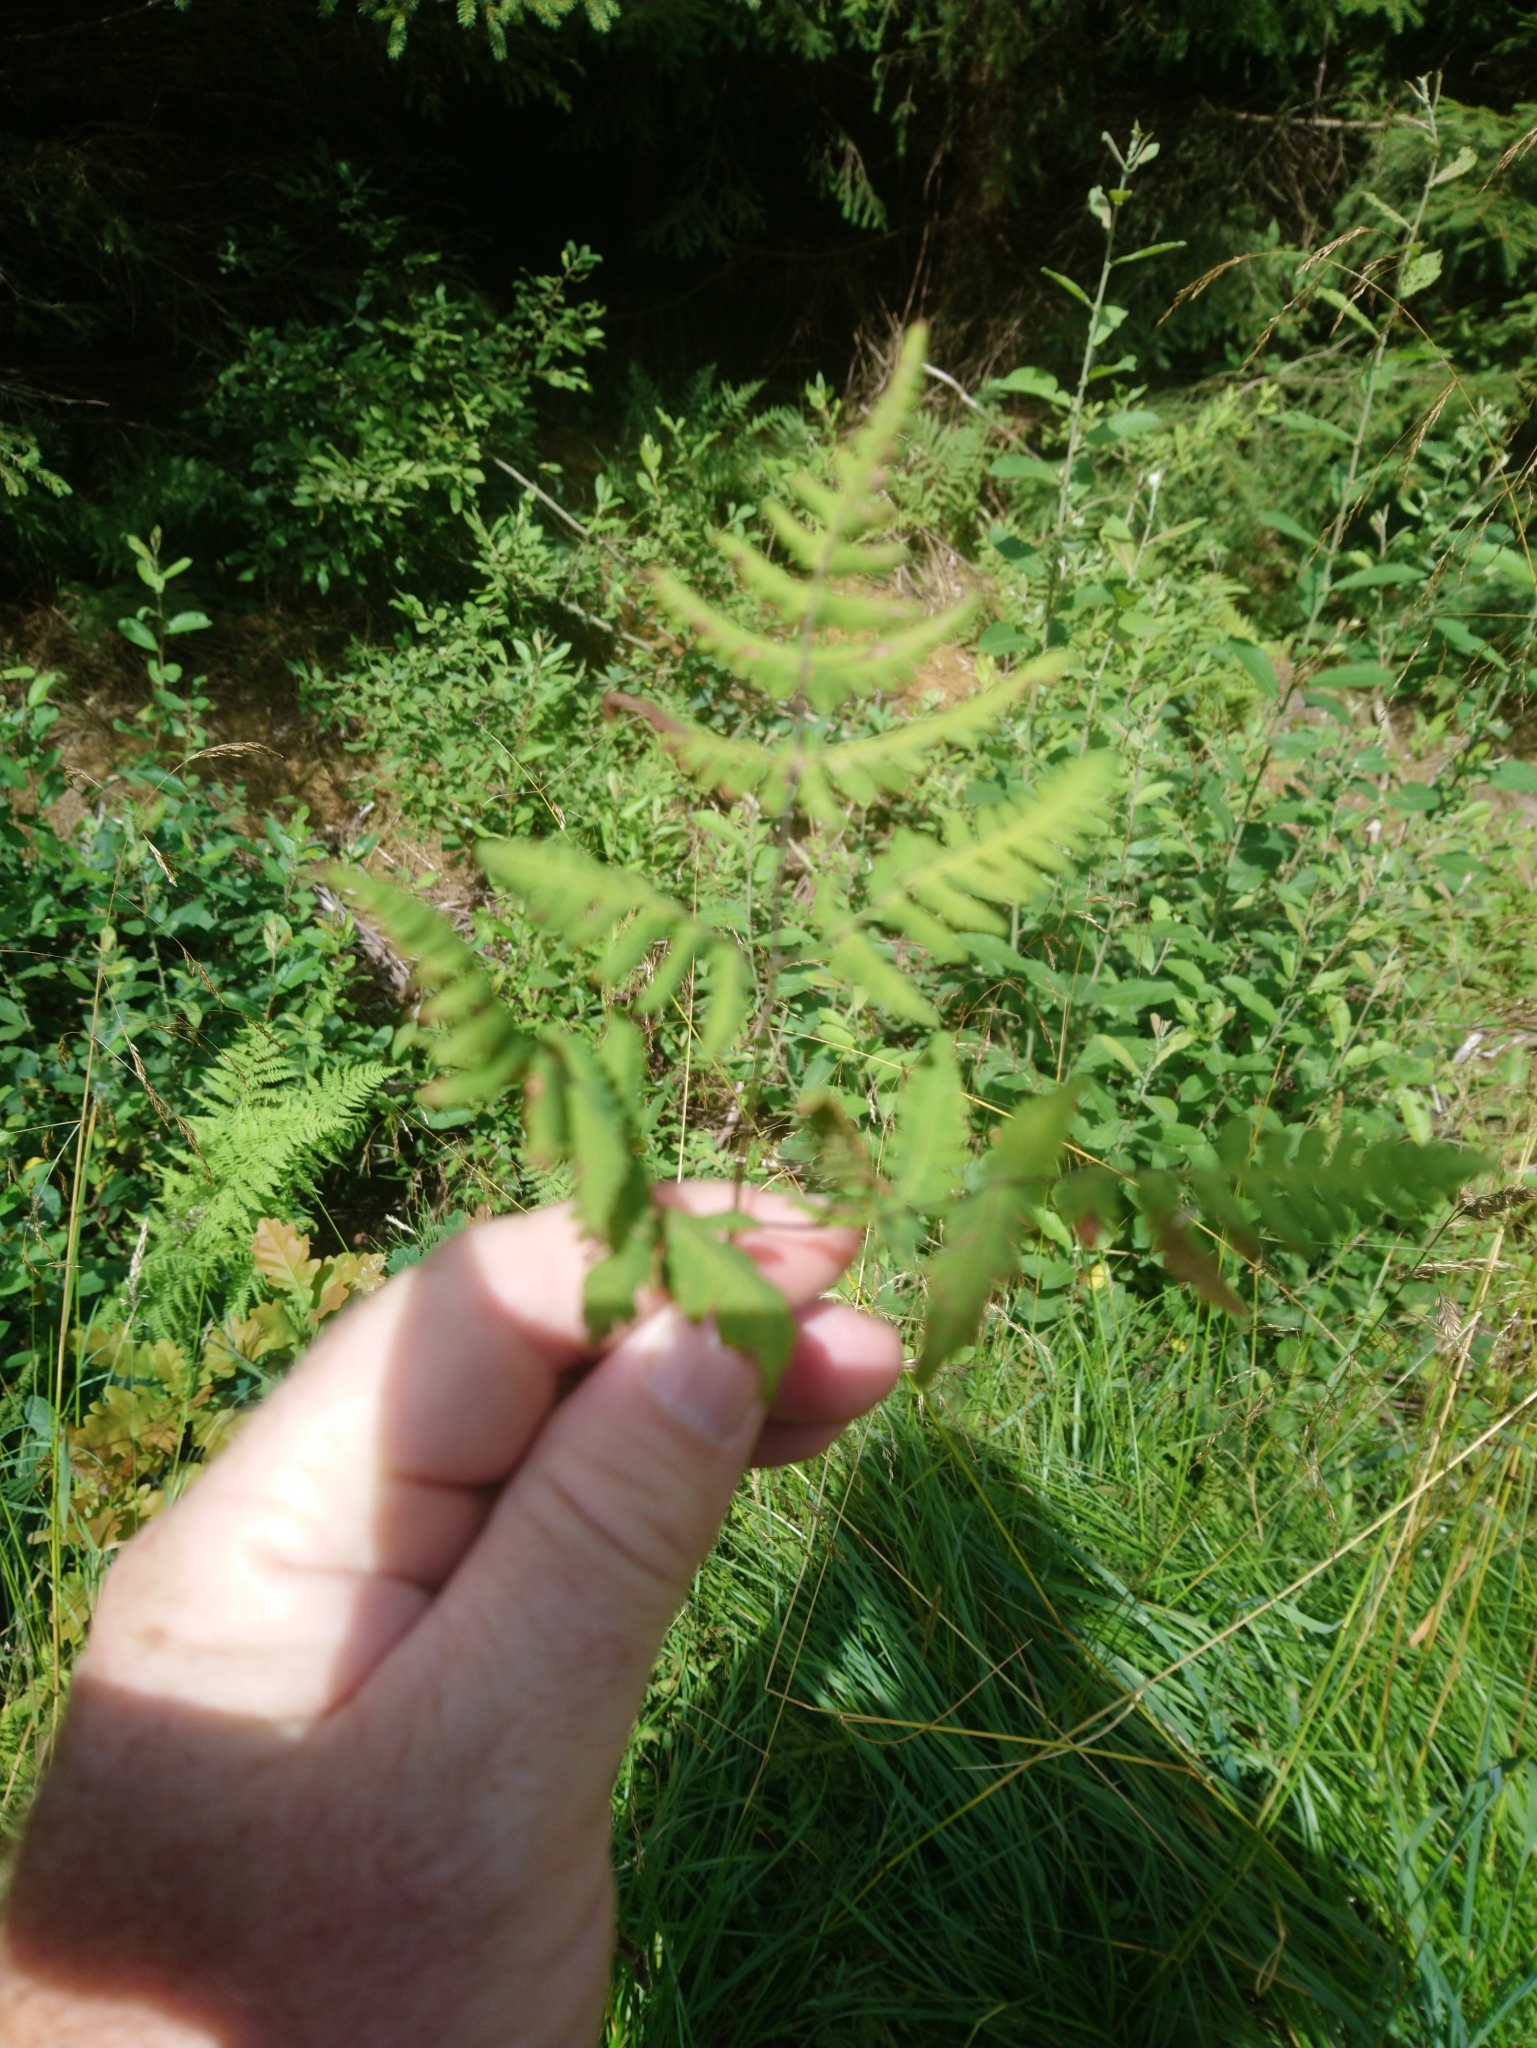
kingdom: Plantae
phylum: Tracheophyta
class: Polypodiopsida
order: Polypodiales
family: Cystopteridaceae
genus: Gymnocarpium
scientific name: Gymnocarpium dryopteris
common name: Oak fern
